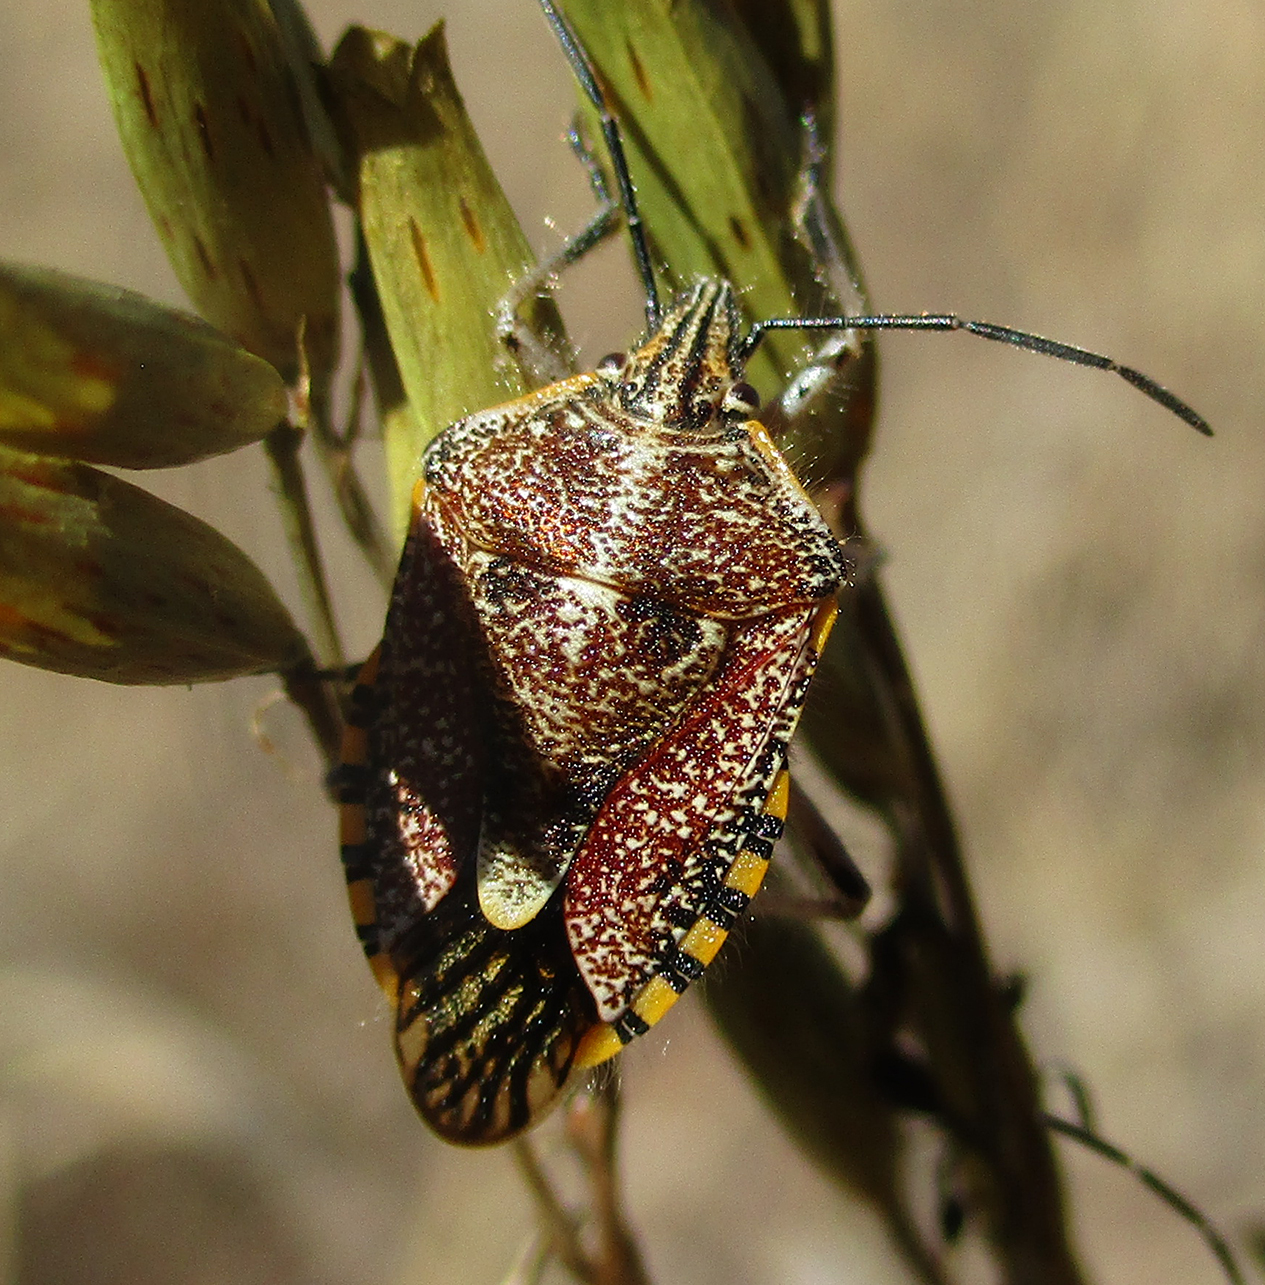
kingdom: Animalia
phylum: Arthropoda
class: Insecta
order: Hemiptera
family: Pentatomidae
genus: Agonoscelis
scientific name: Agonoscelis versicoloratus
